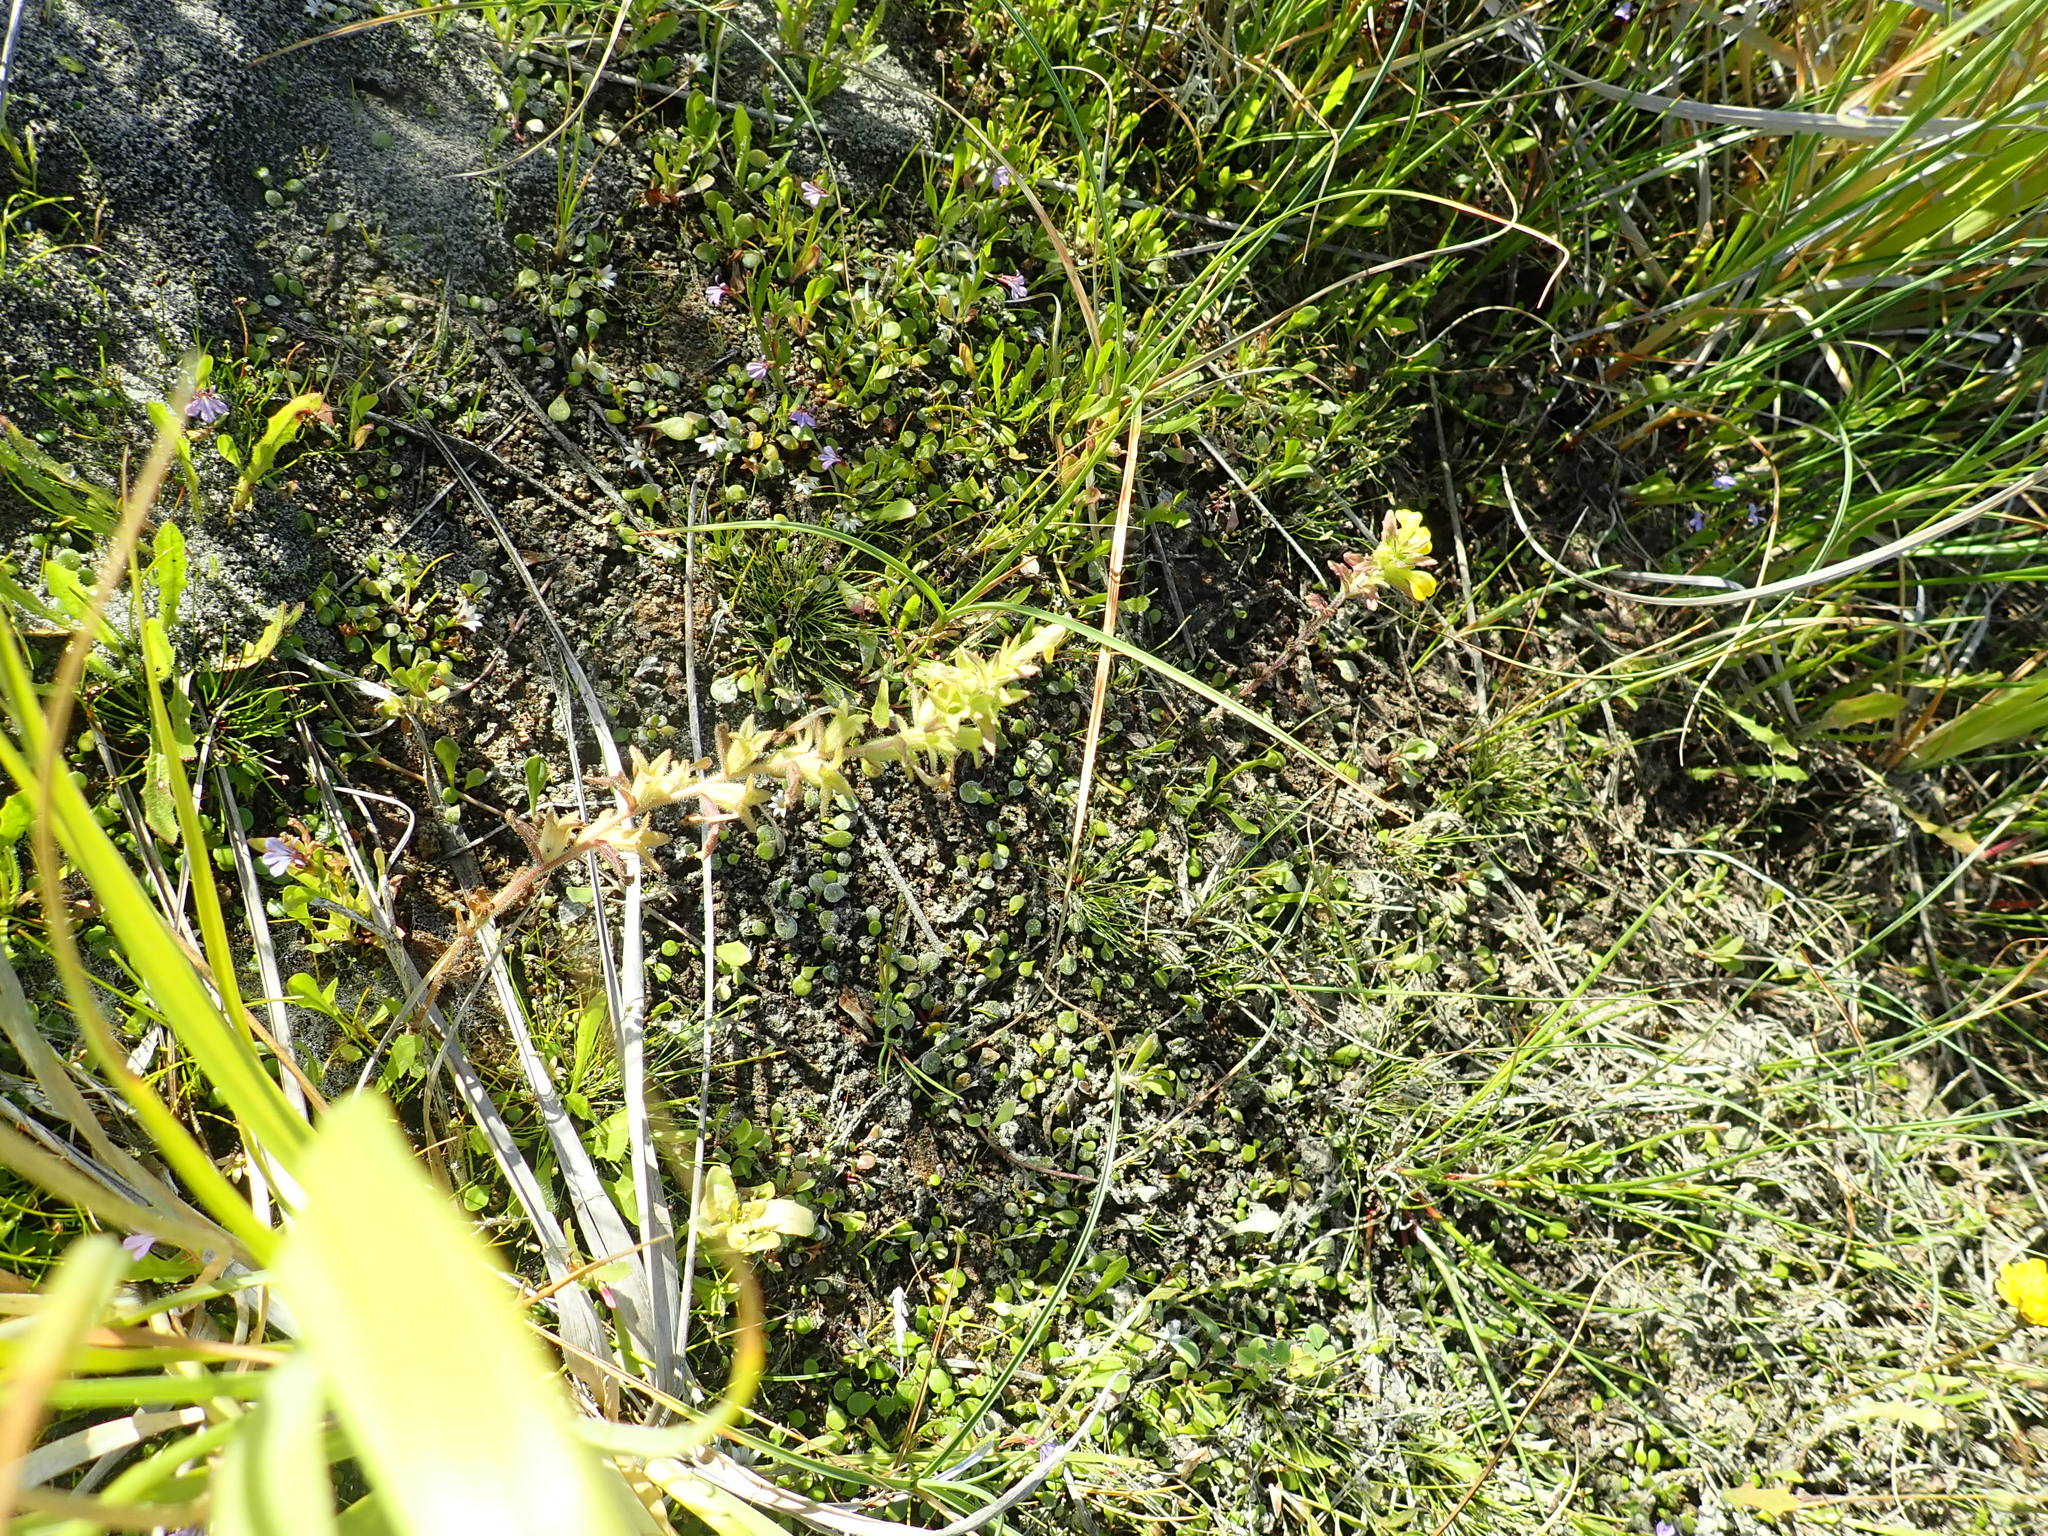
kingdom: Plantae
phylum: Tracheophyta
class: Magnoliopsida
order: Lamiales
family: Orobanchaceae
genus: Bellardia
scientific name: Bellardia viscosa
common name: Sticky parentucellia
